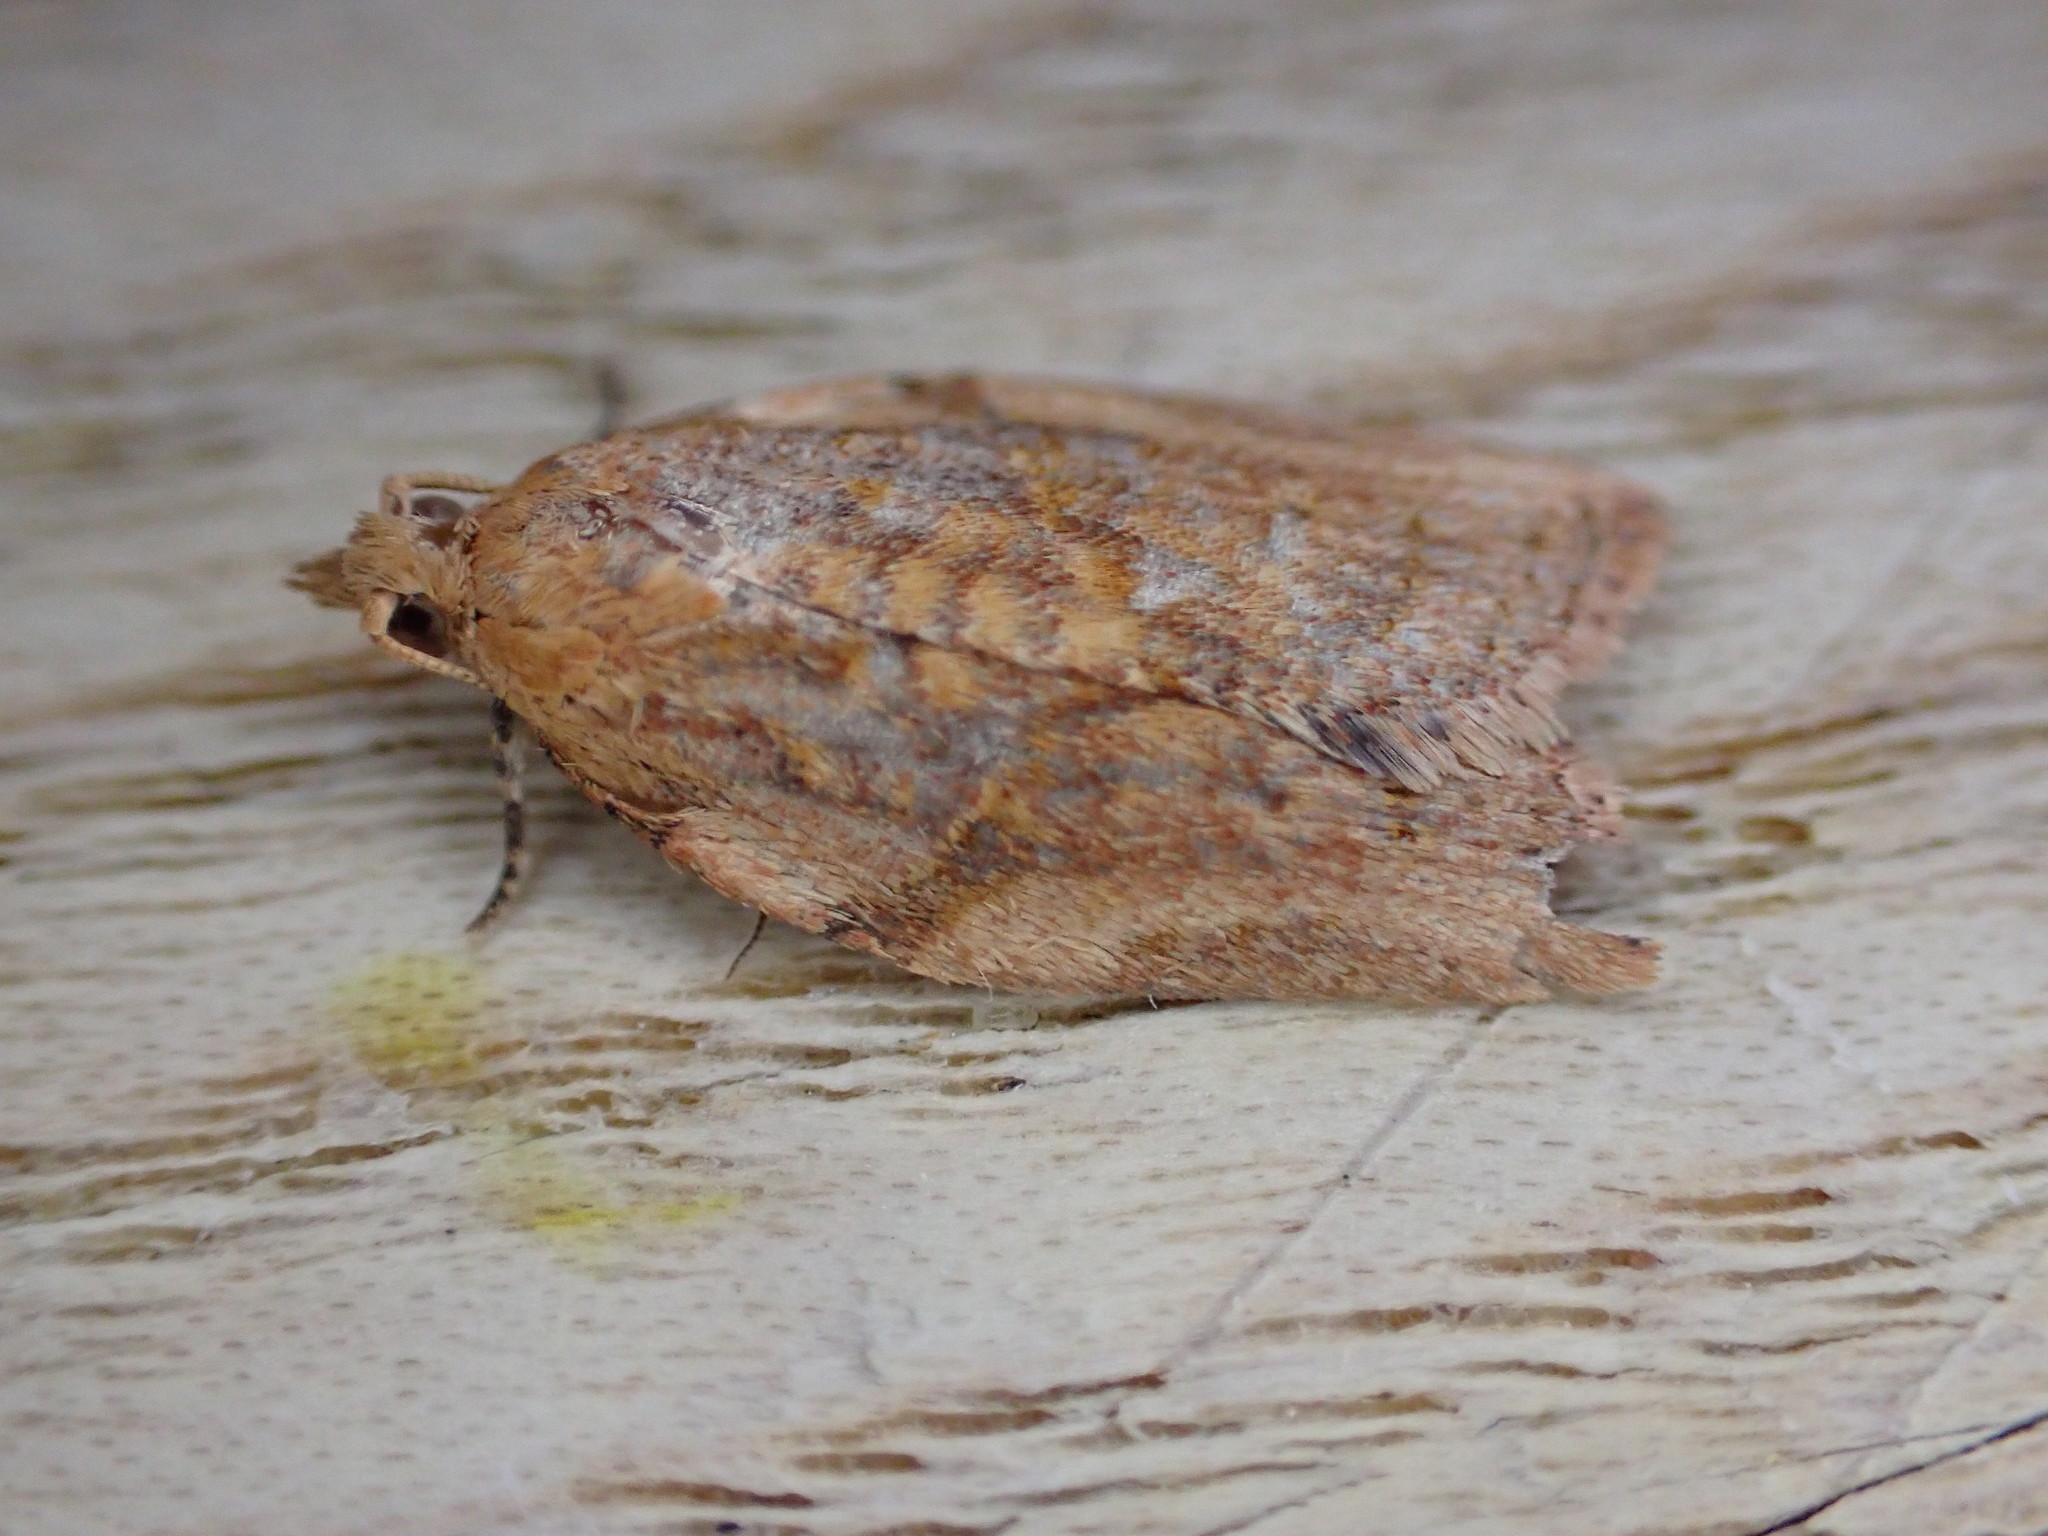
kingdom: Animalia
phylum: Arthropoda
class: Insecta
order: Lepidoptera
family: Tortricidae
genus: Epiphyas
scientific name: Epiphyas postvittana
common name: Light brown apple moth
